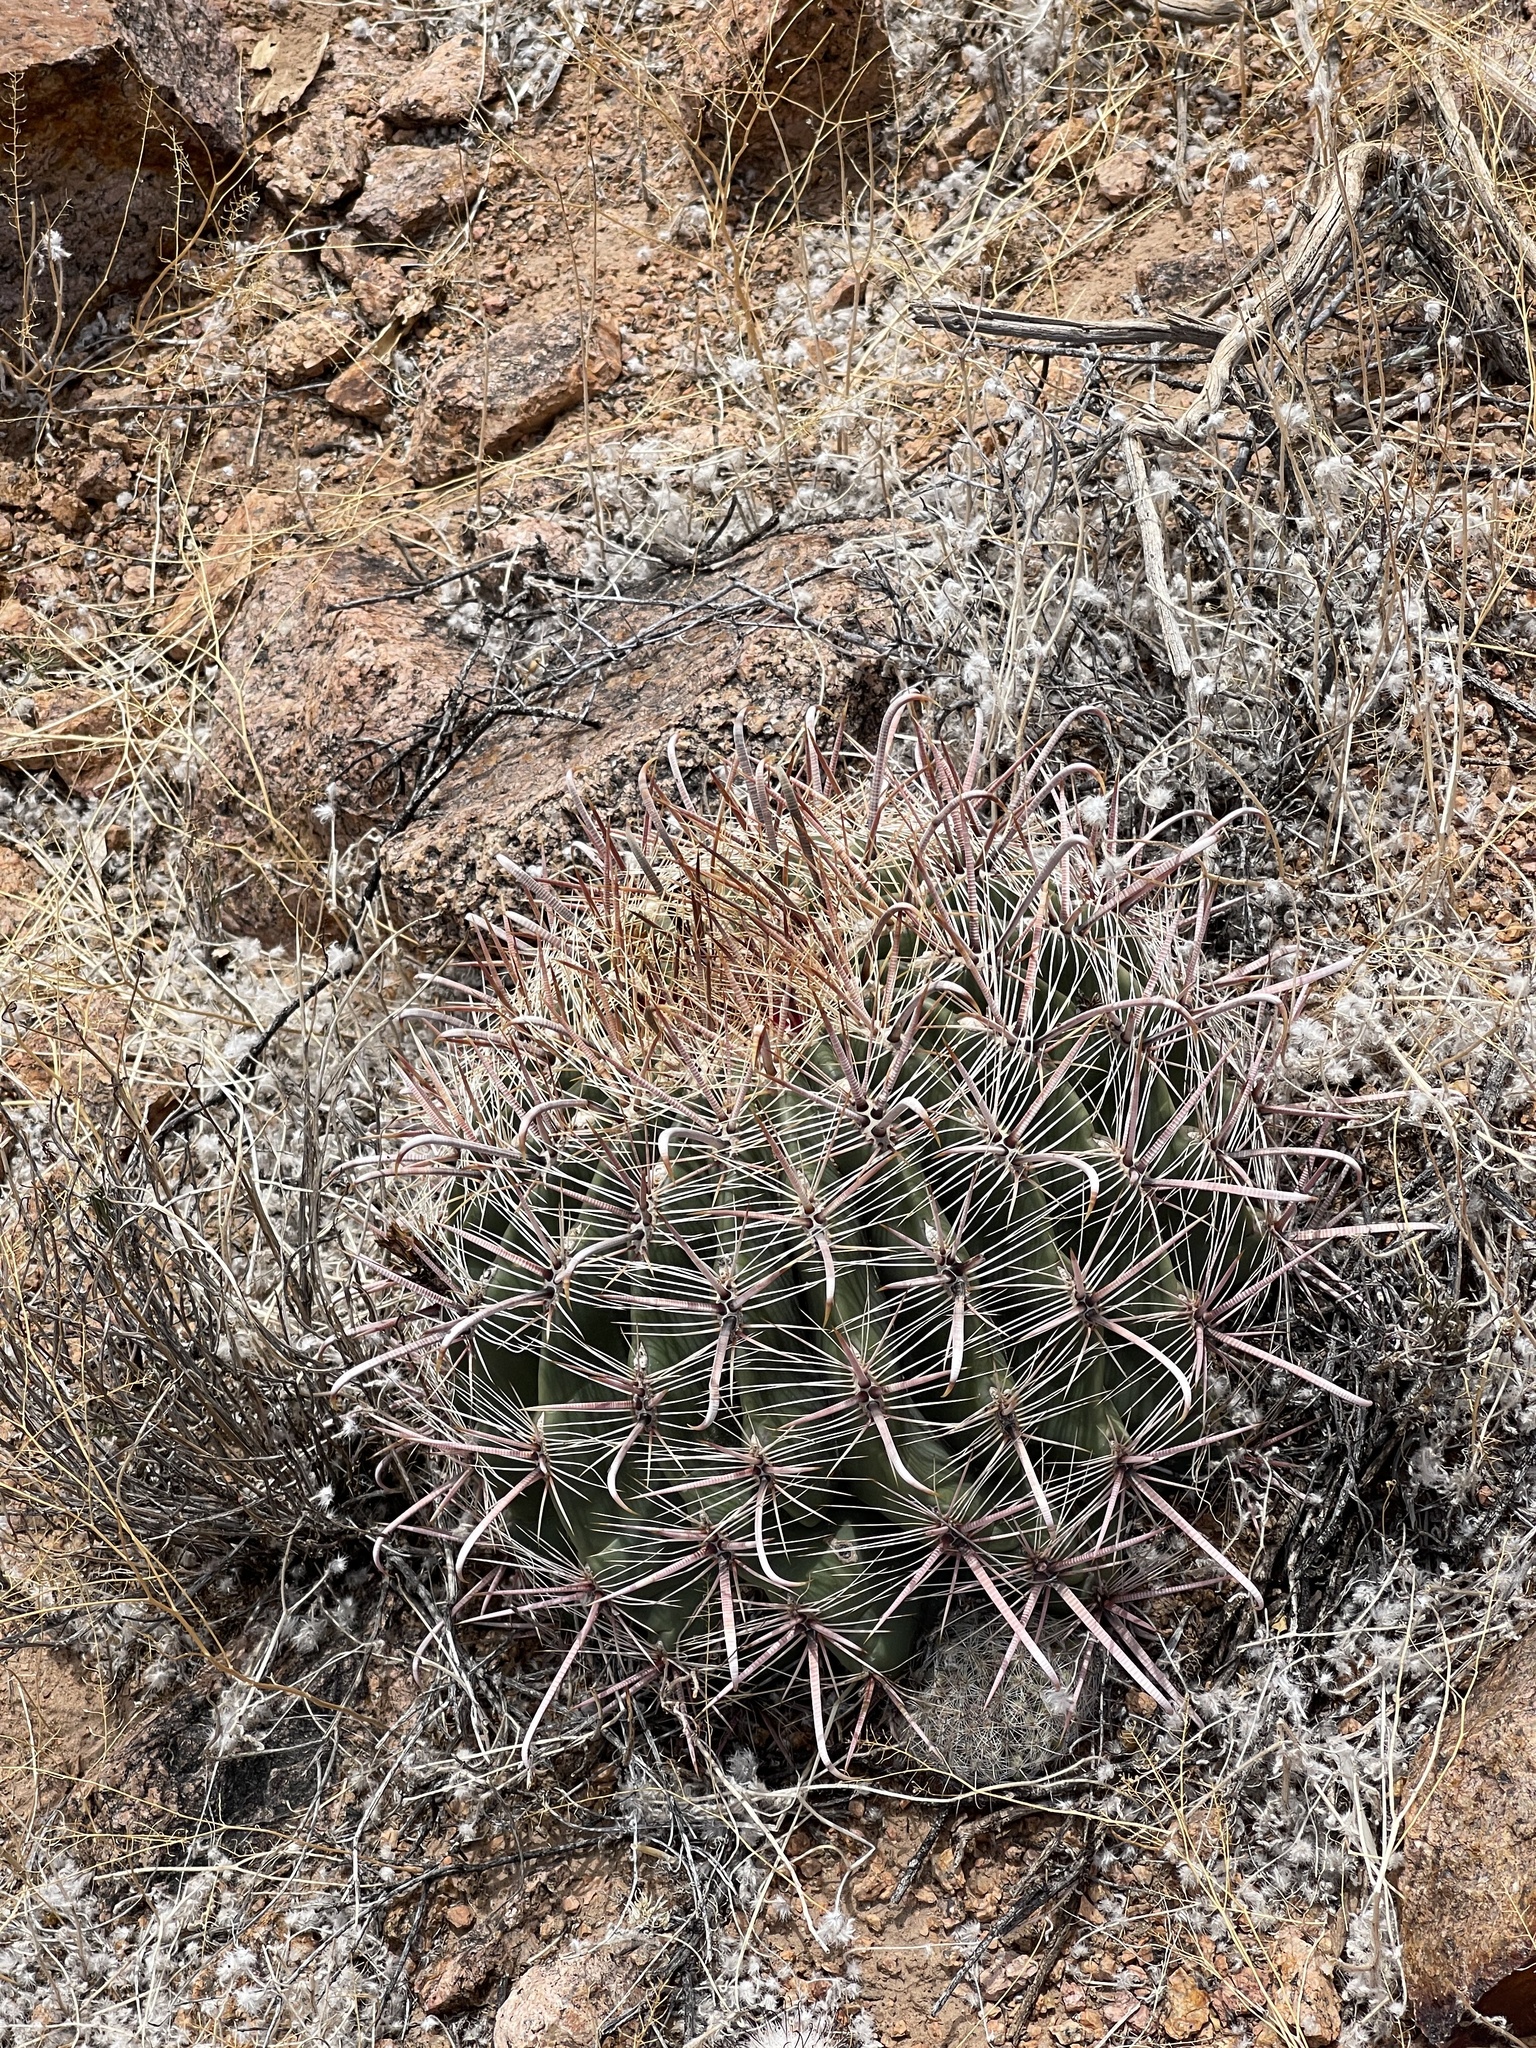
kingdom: Plantae
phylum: Tracheophyta
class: Magnoliopsida
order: Caryophyllales
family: Cactaceae
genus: Ferocactus
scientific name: Ferocactus wislizeni
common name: Candy barrel cactus
